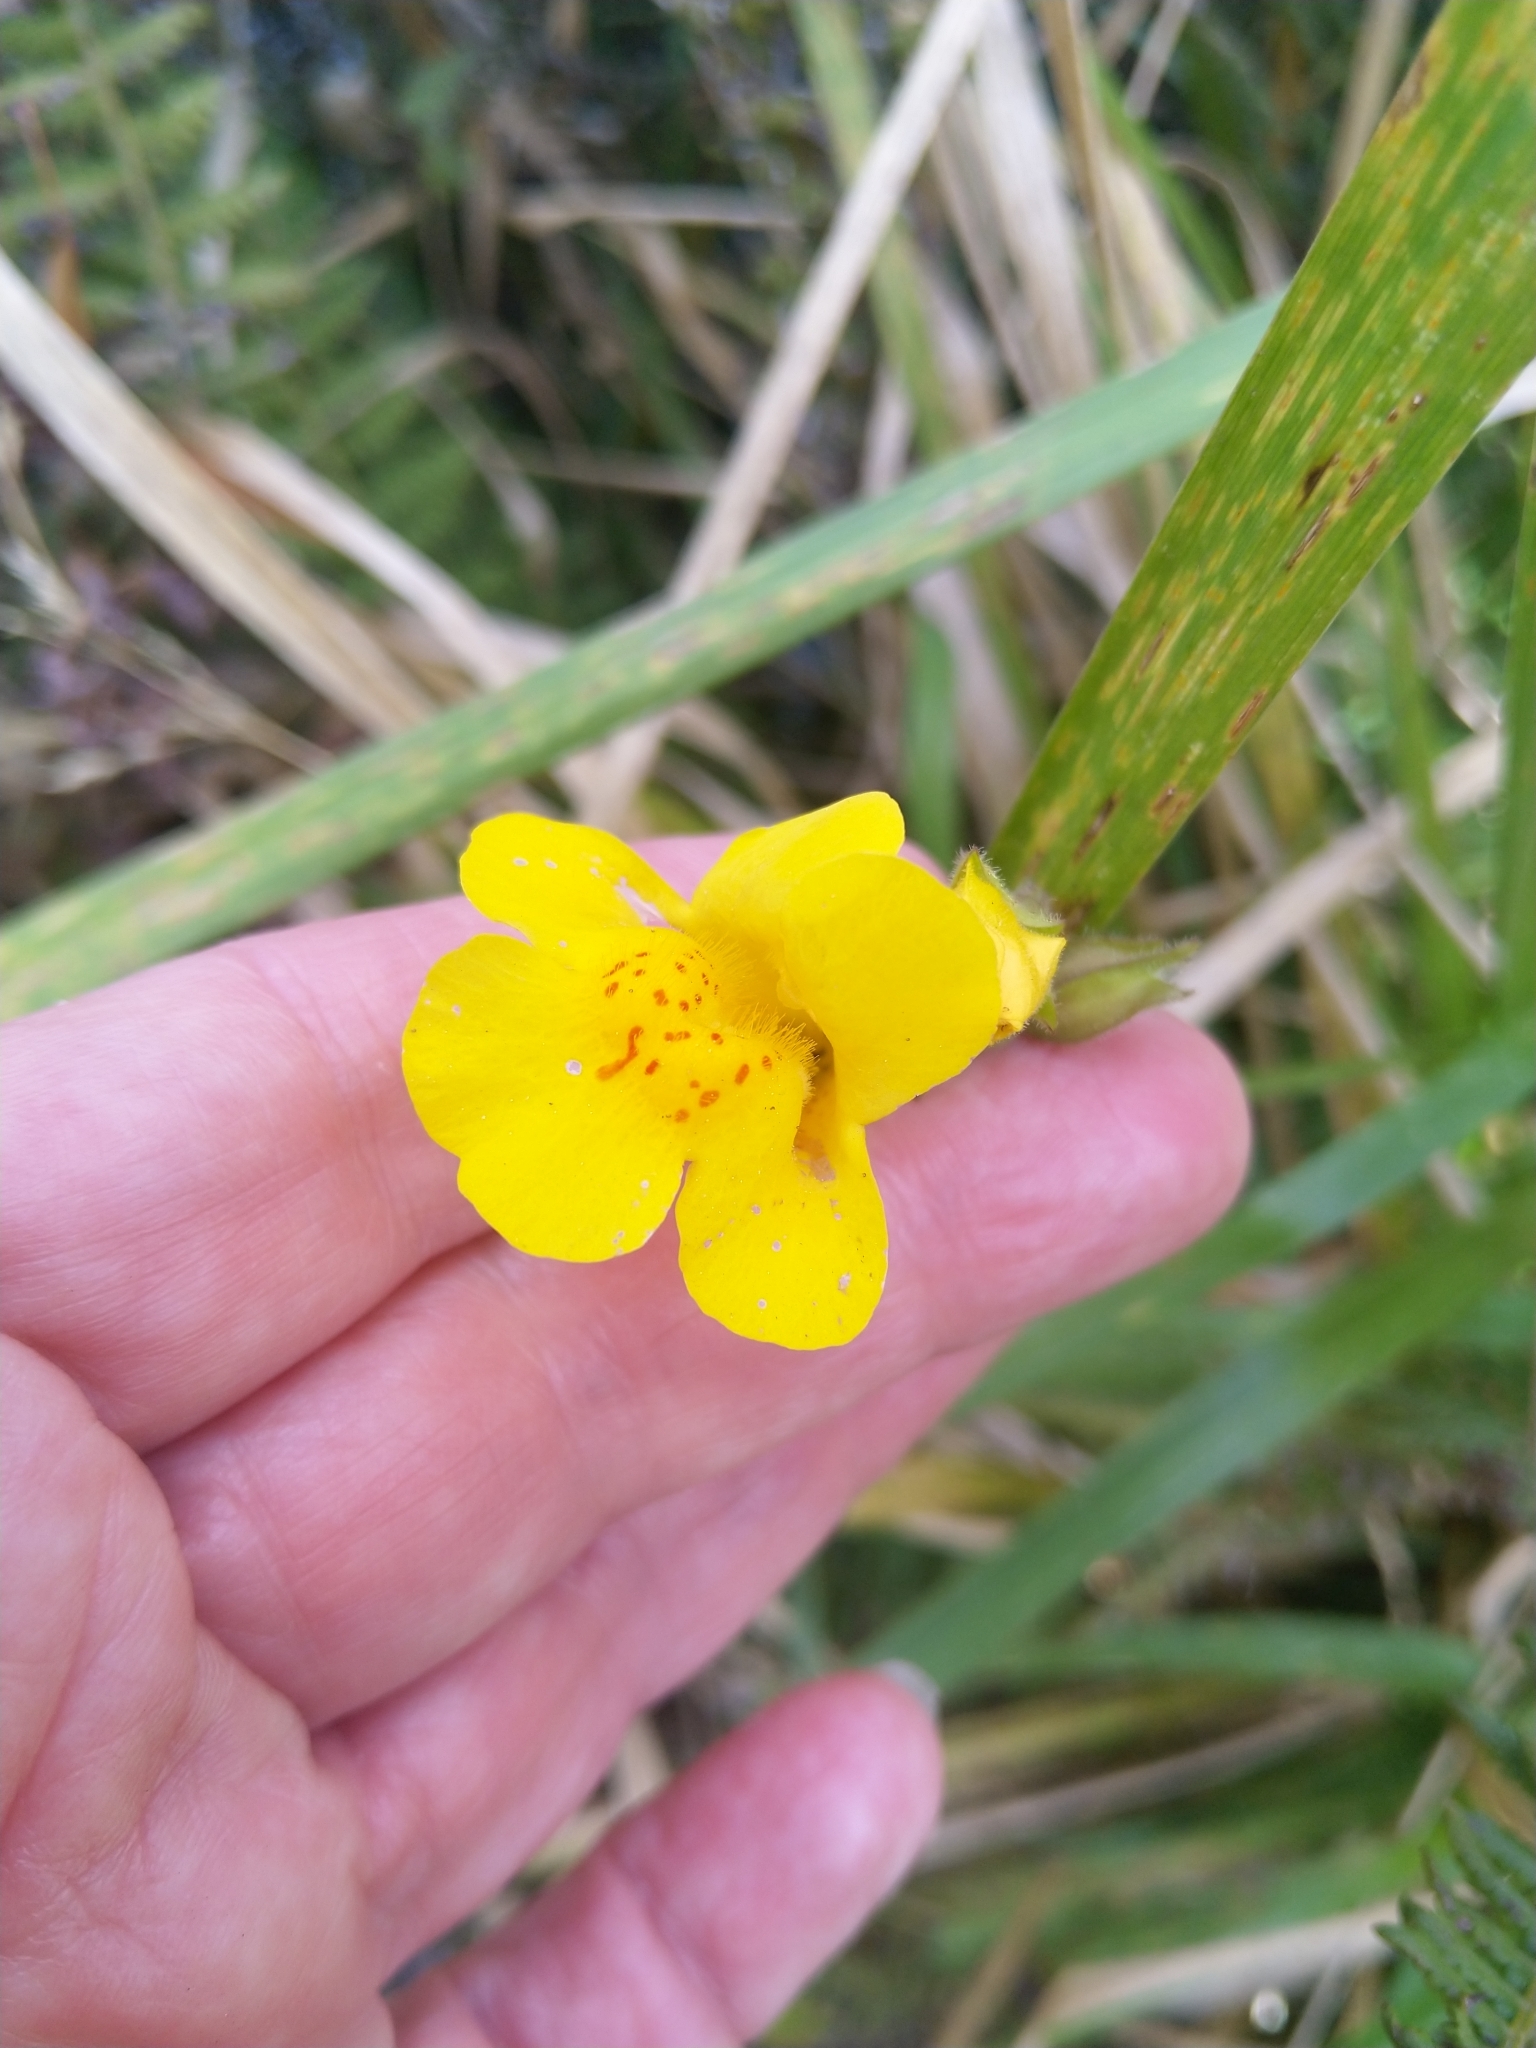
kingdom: Plantae
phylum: Tracheophyta
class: Magnoliopsida
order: Lamiales
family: Phrymaceae
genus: Erythranthe
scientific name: Erythranthe moschata
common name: Muskflower
